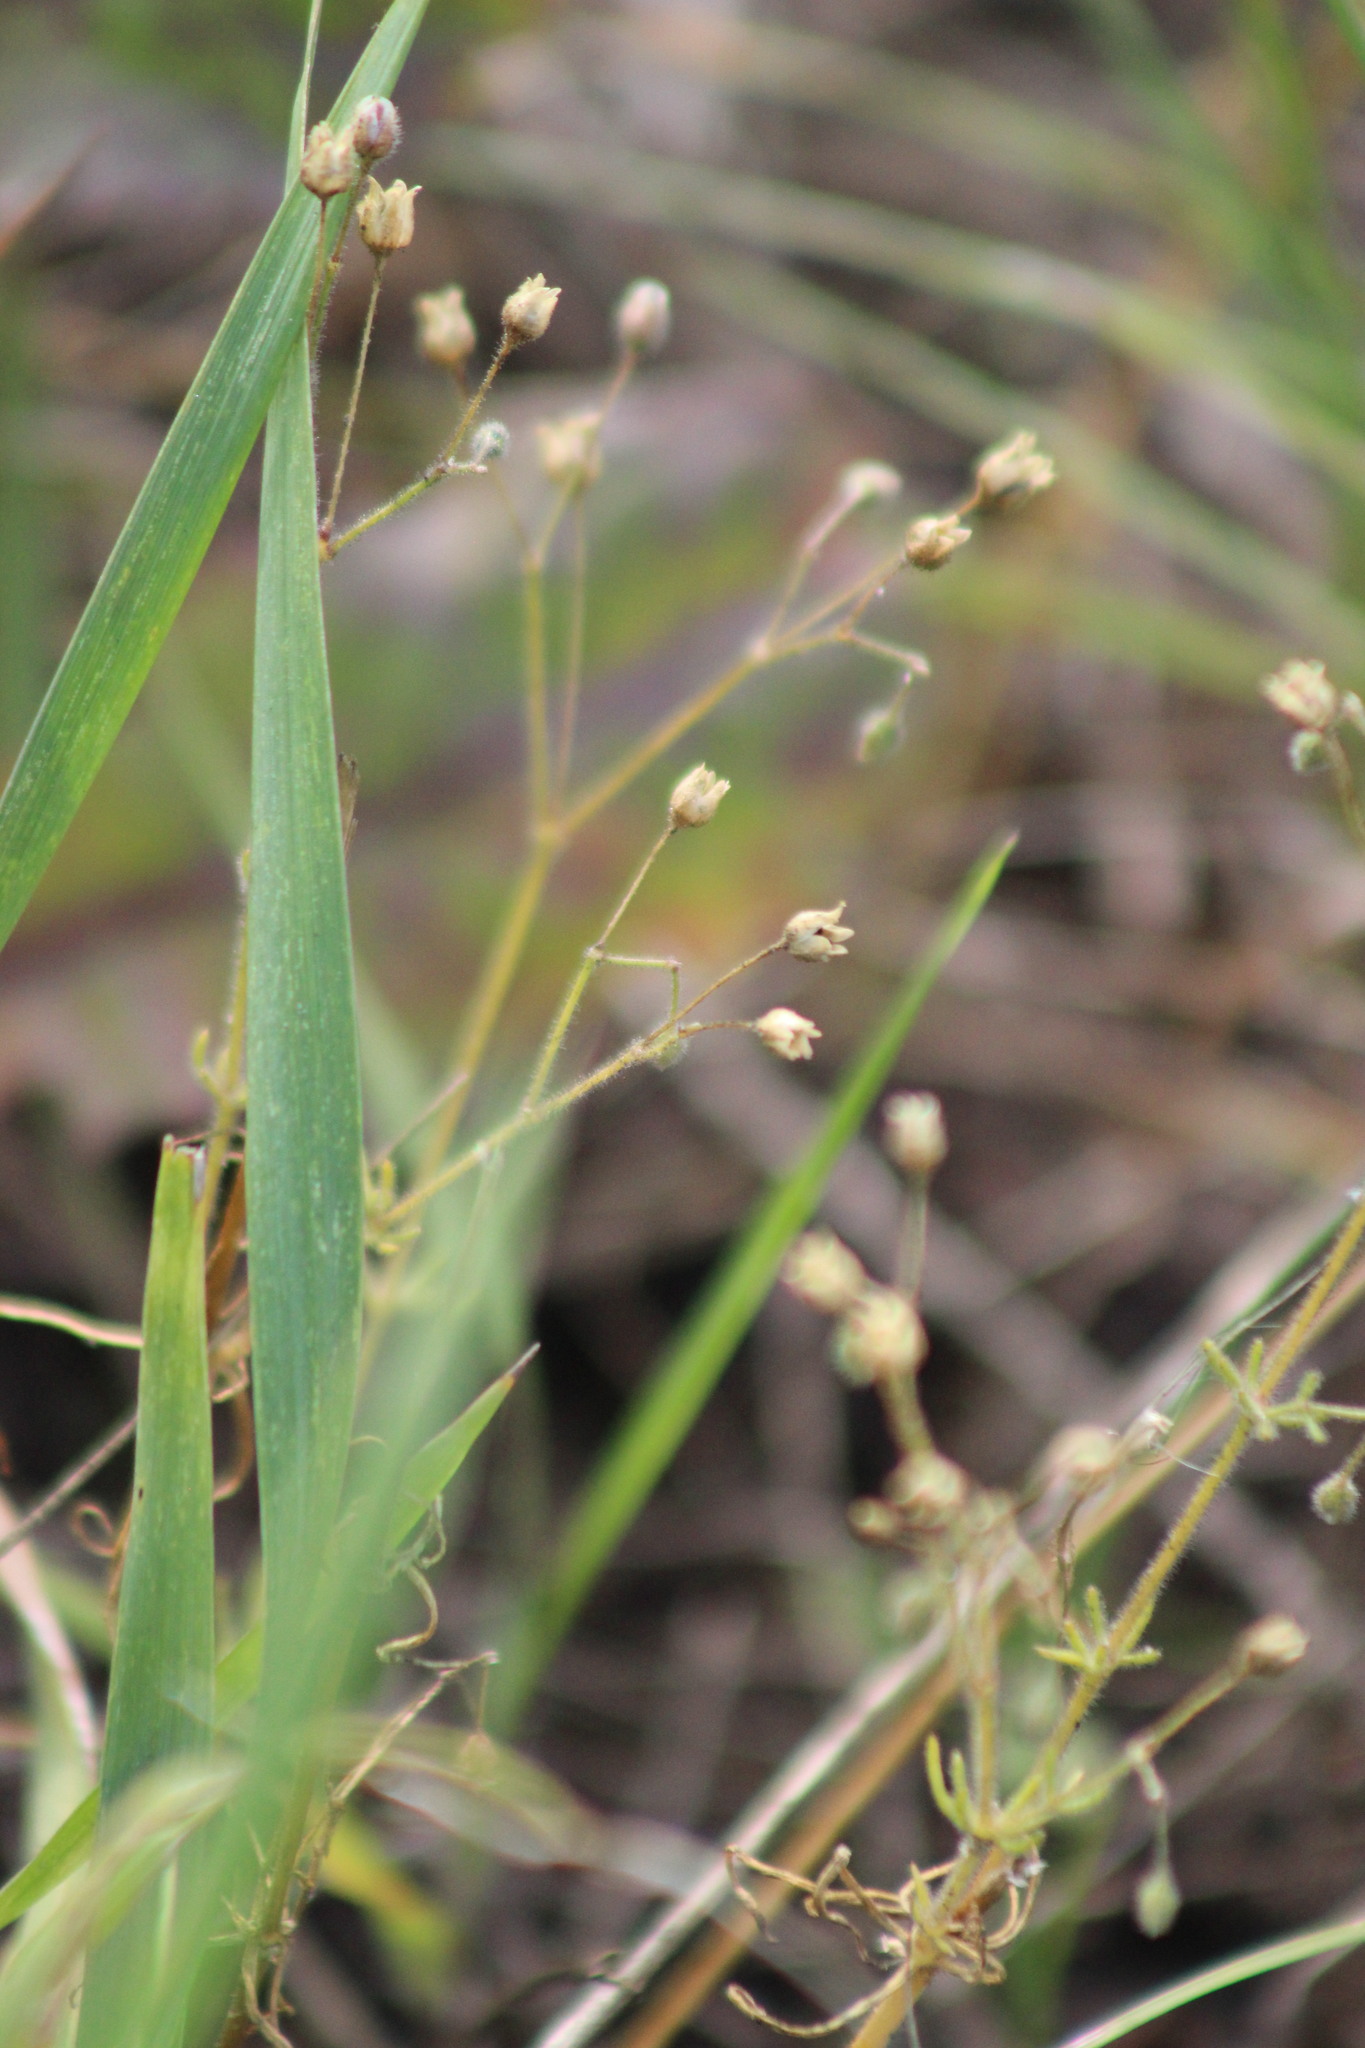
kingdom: Plantae
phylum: Tracheophyta
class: Magnoliopsida
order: Caryophyllales
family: Caryophyllaceae
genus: Spergula
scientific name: Spergula arvensis
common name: Corn spurrey
